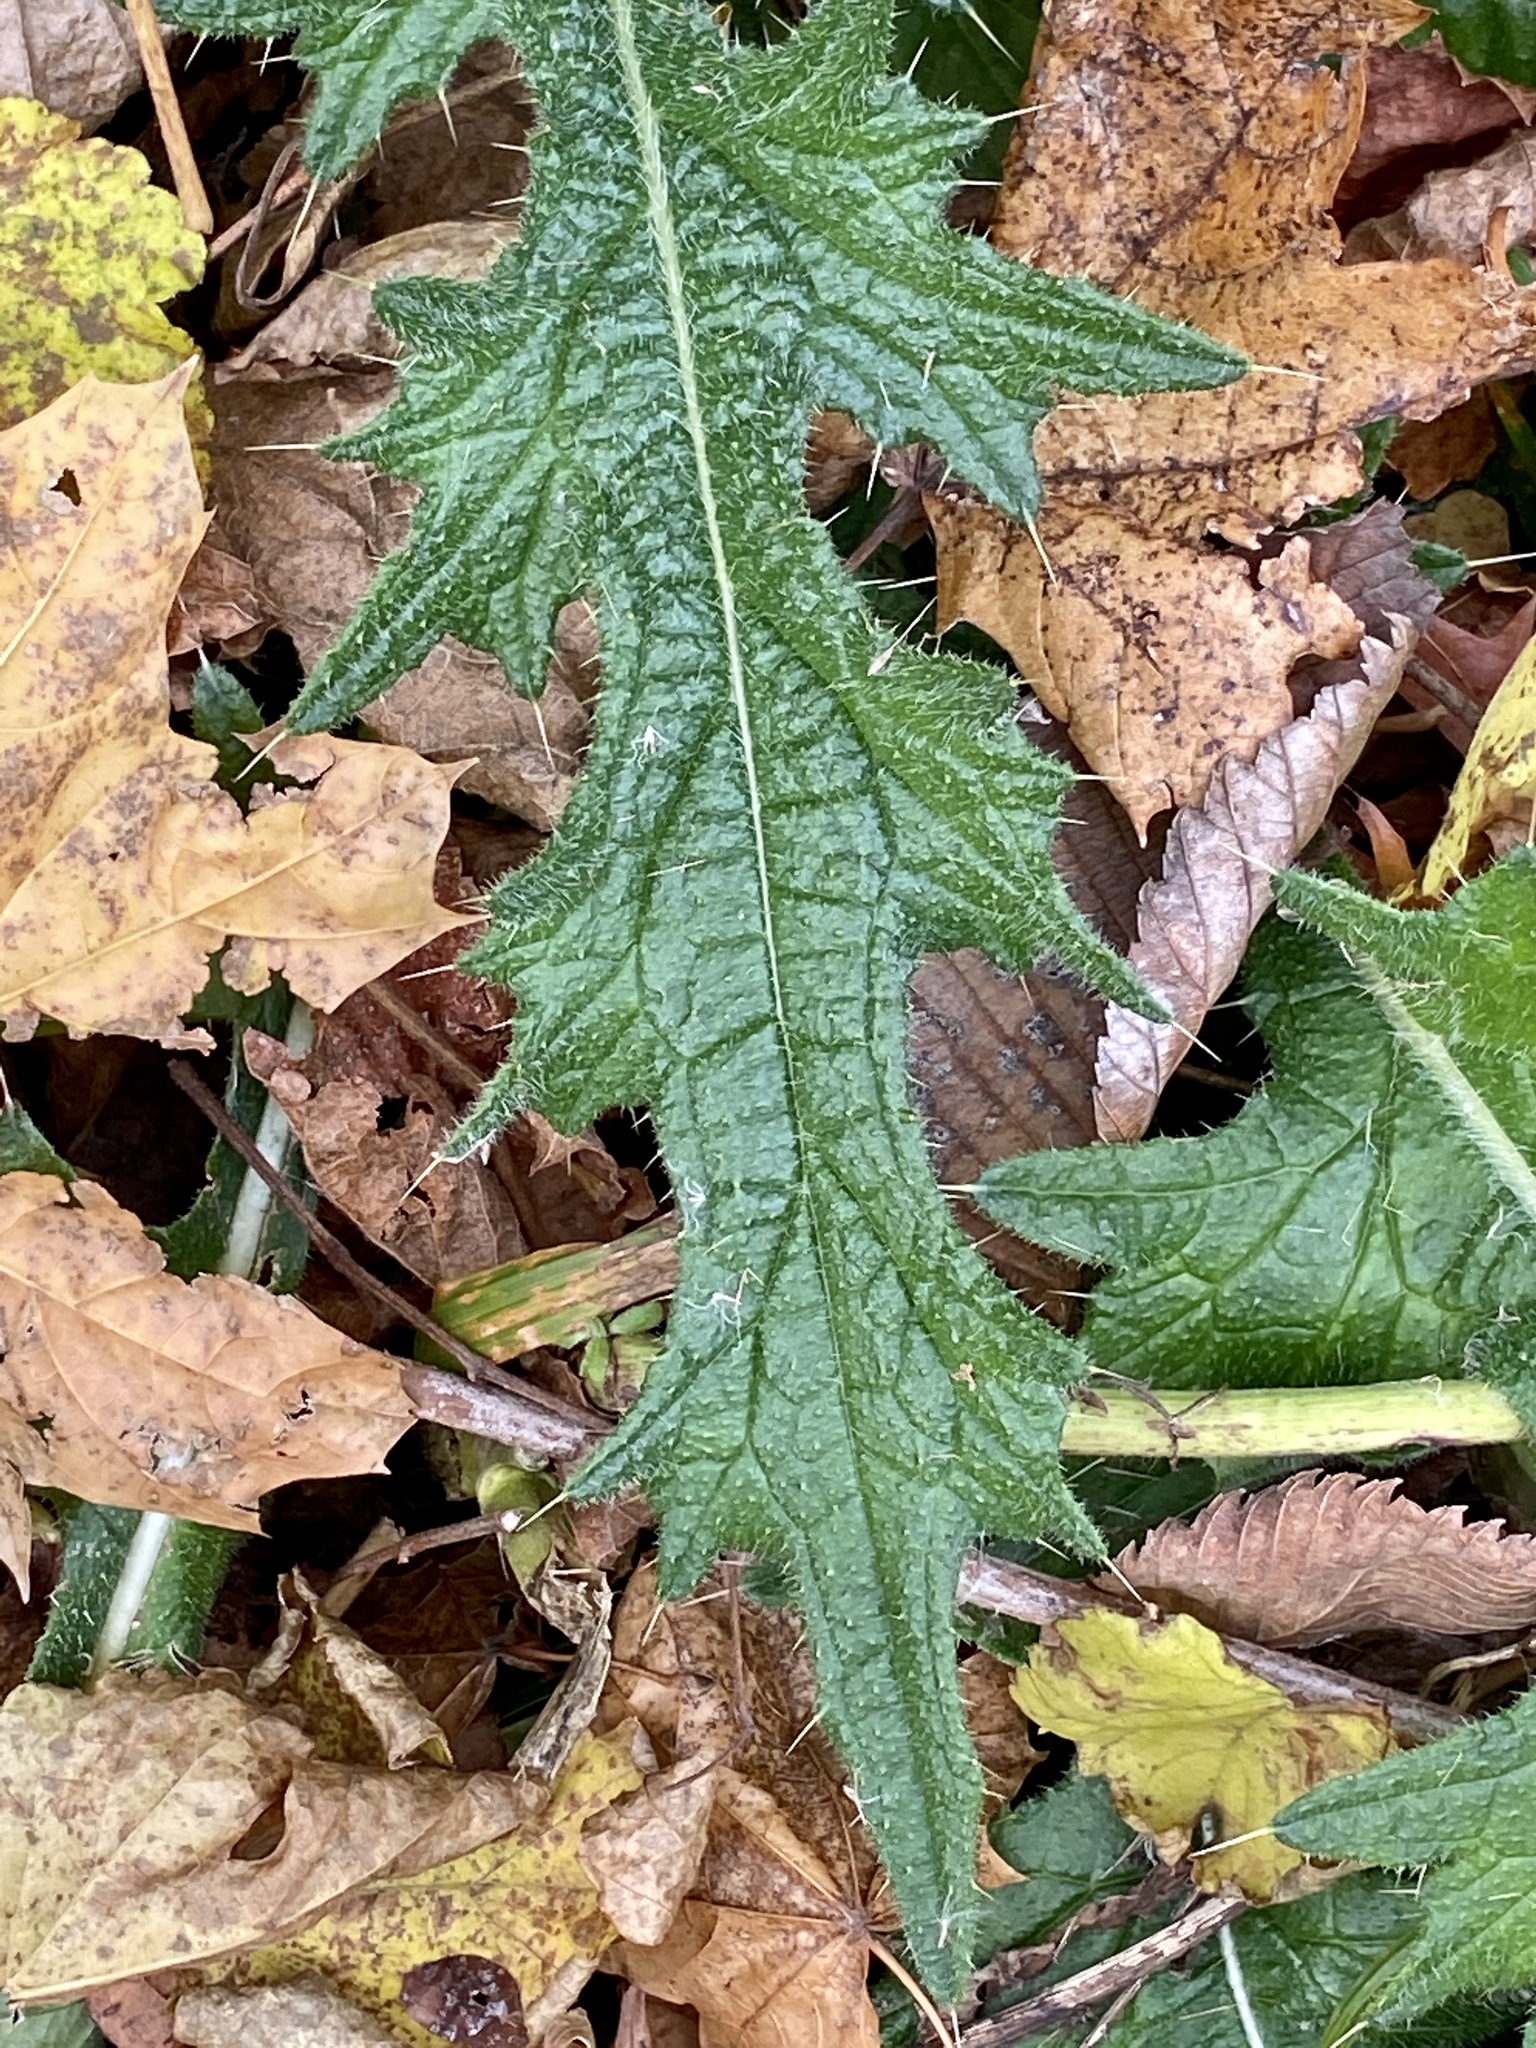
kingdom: Plantae
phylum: Tracheophyta
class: Magnoliopsida
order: Asterales
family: Asteraceae
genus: Cirsium
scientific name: Cirsium vulgare
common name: Bull thistle
